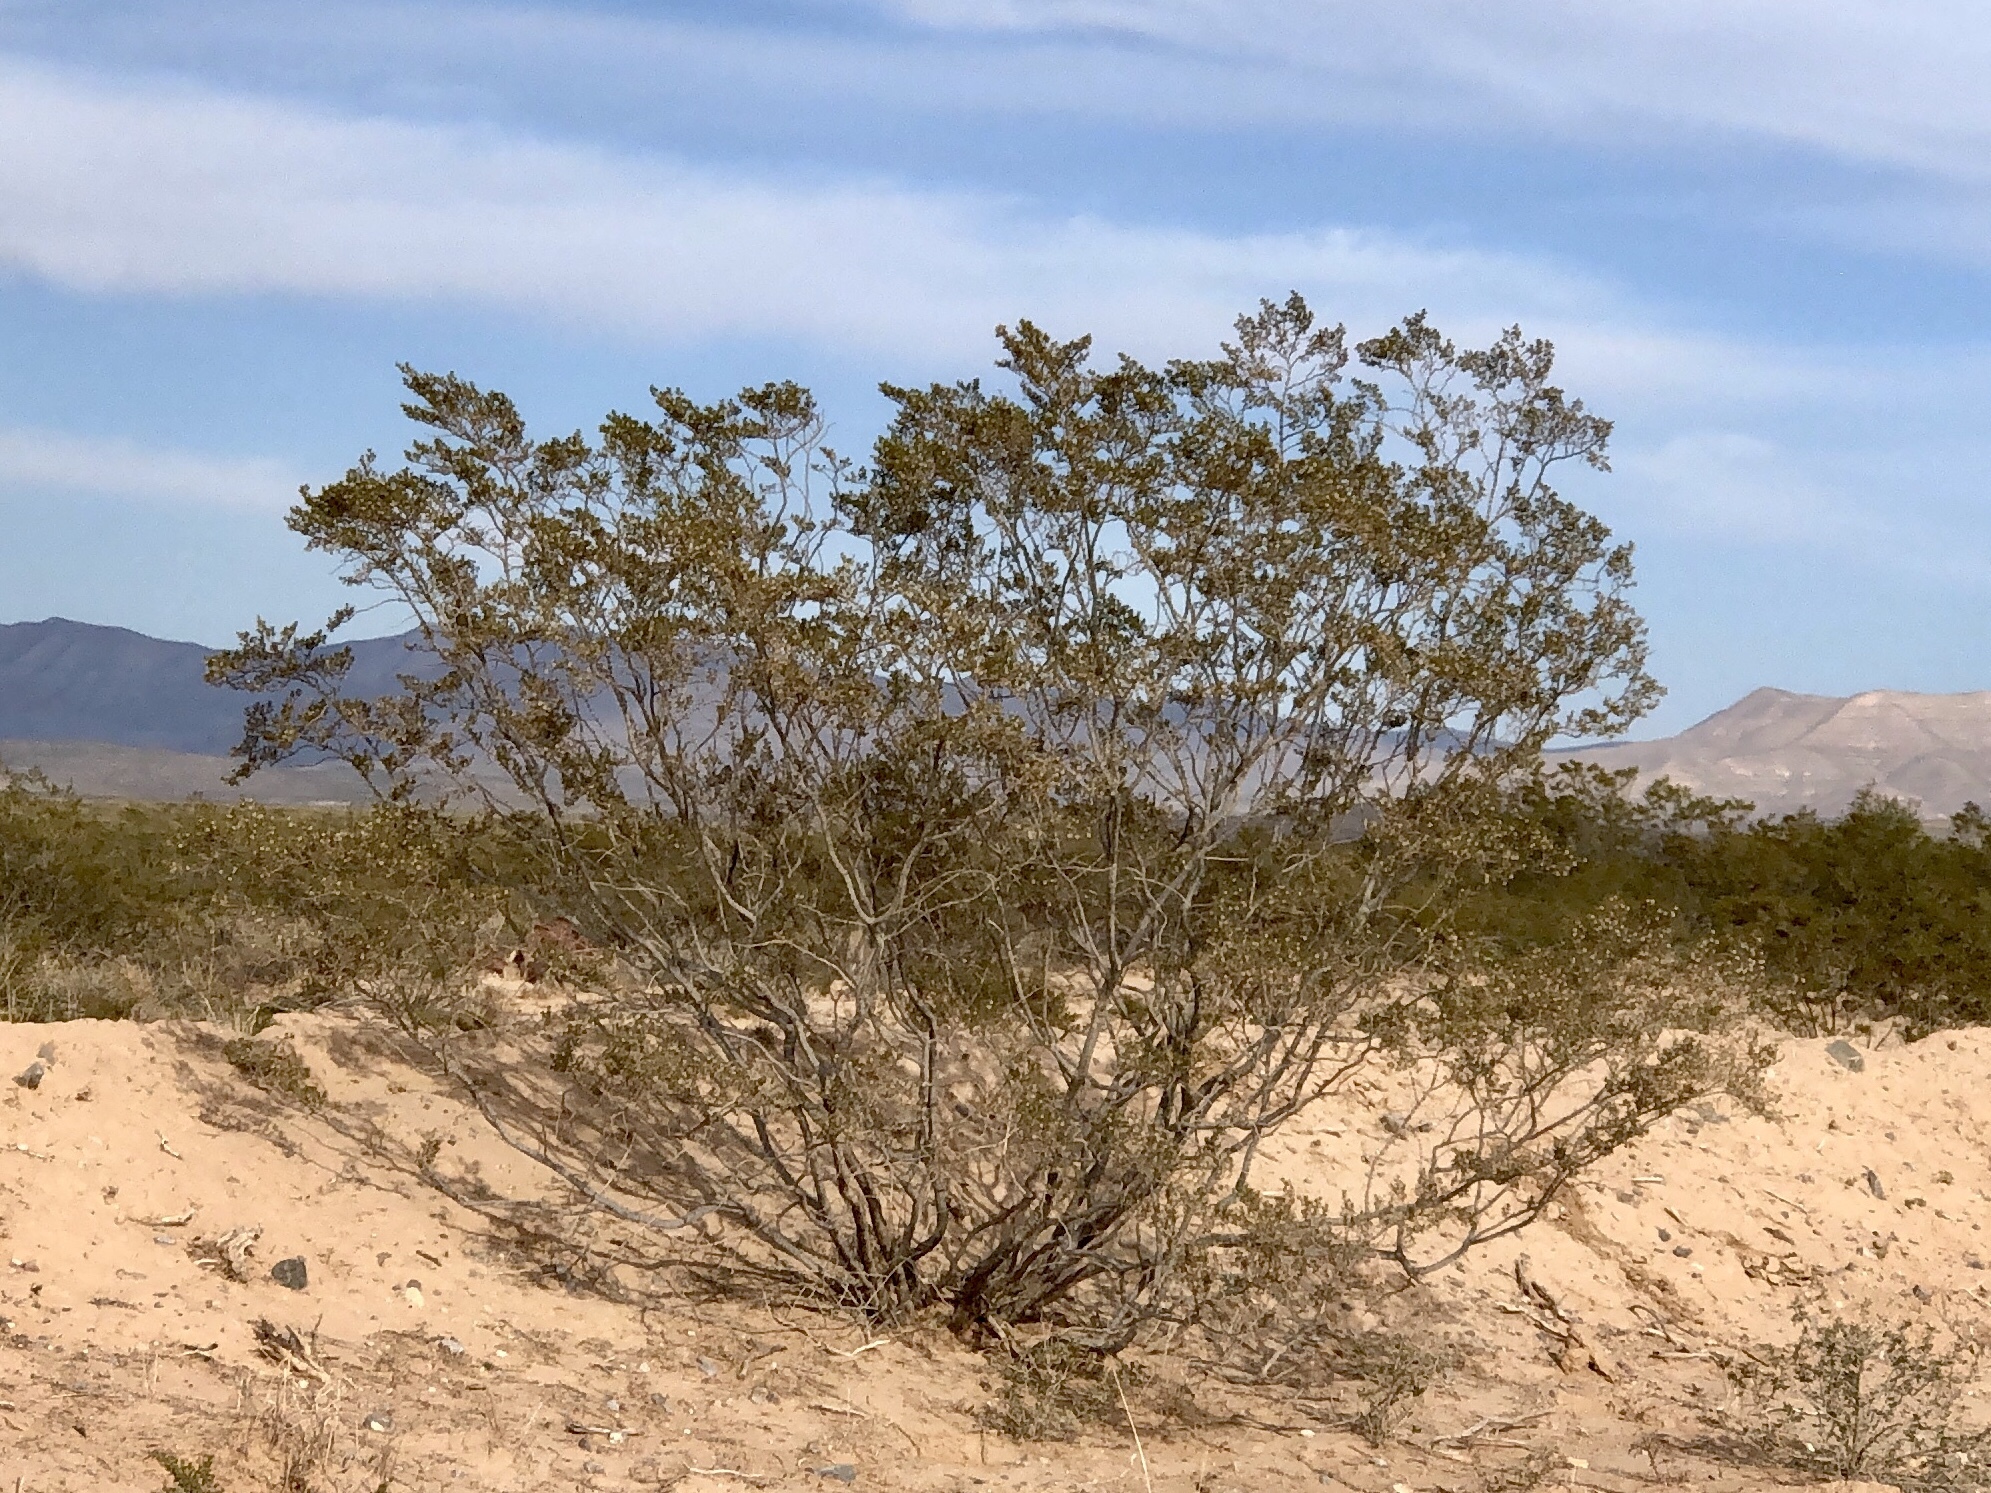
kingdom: Plantae
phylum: Tracheophyta
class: Magnoliopsida
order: Zygophyllales
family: Zygophyllaceae
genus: Larrea
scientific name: Larrea tridentata
